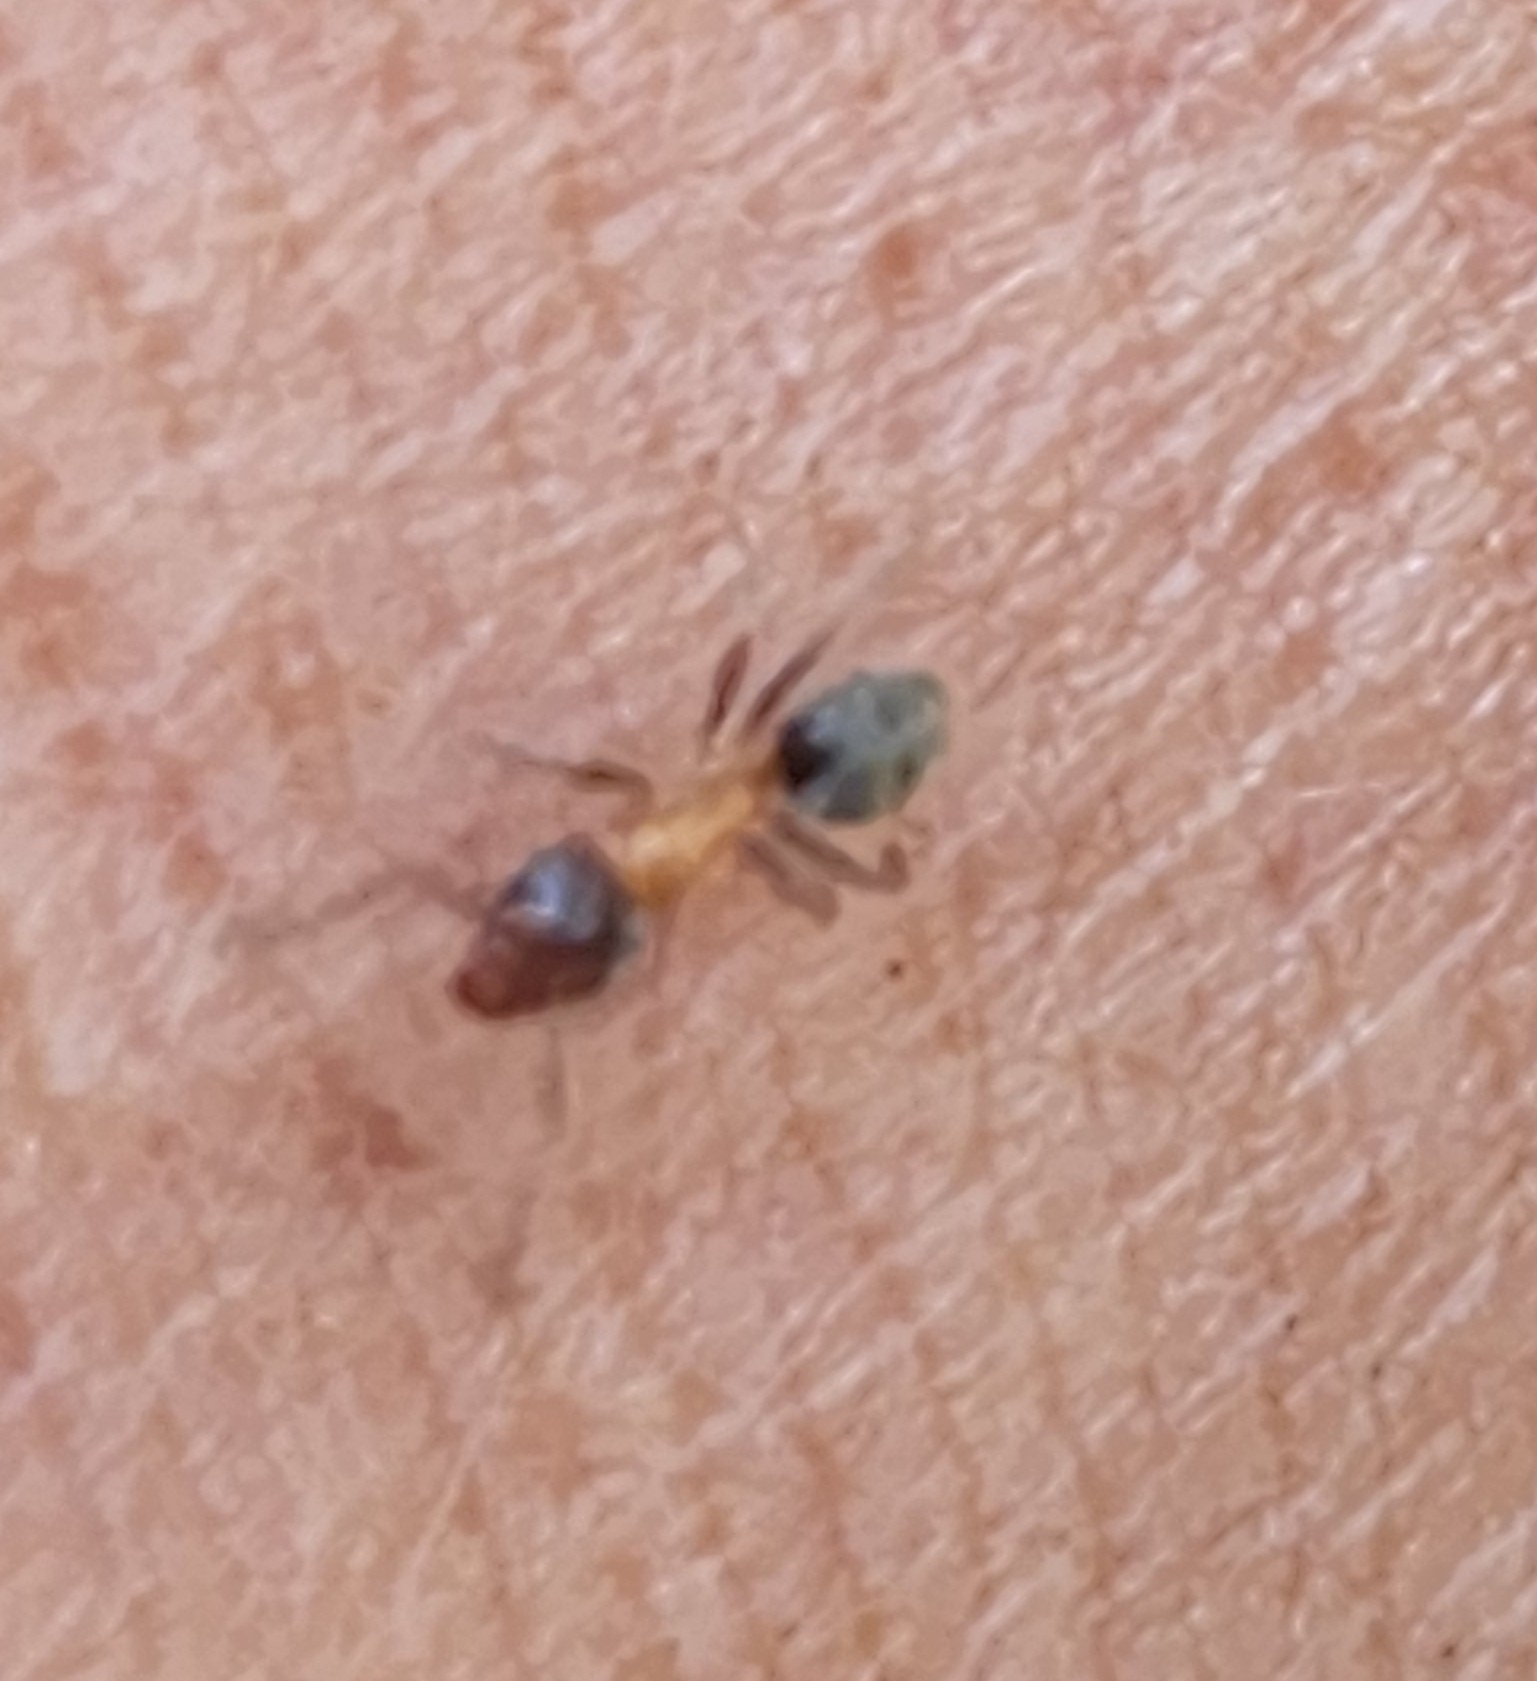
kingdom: Animalia
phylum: Arthropoda
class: Insecta
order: Hymenoptera
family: Formicidae
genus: Liometopum
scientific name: Liometopum occidentale
